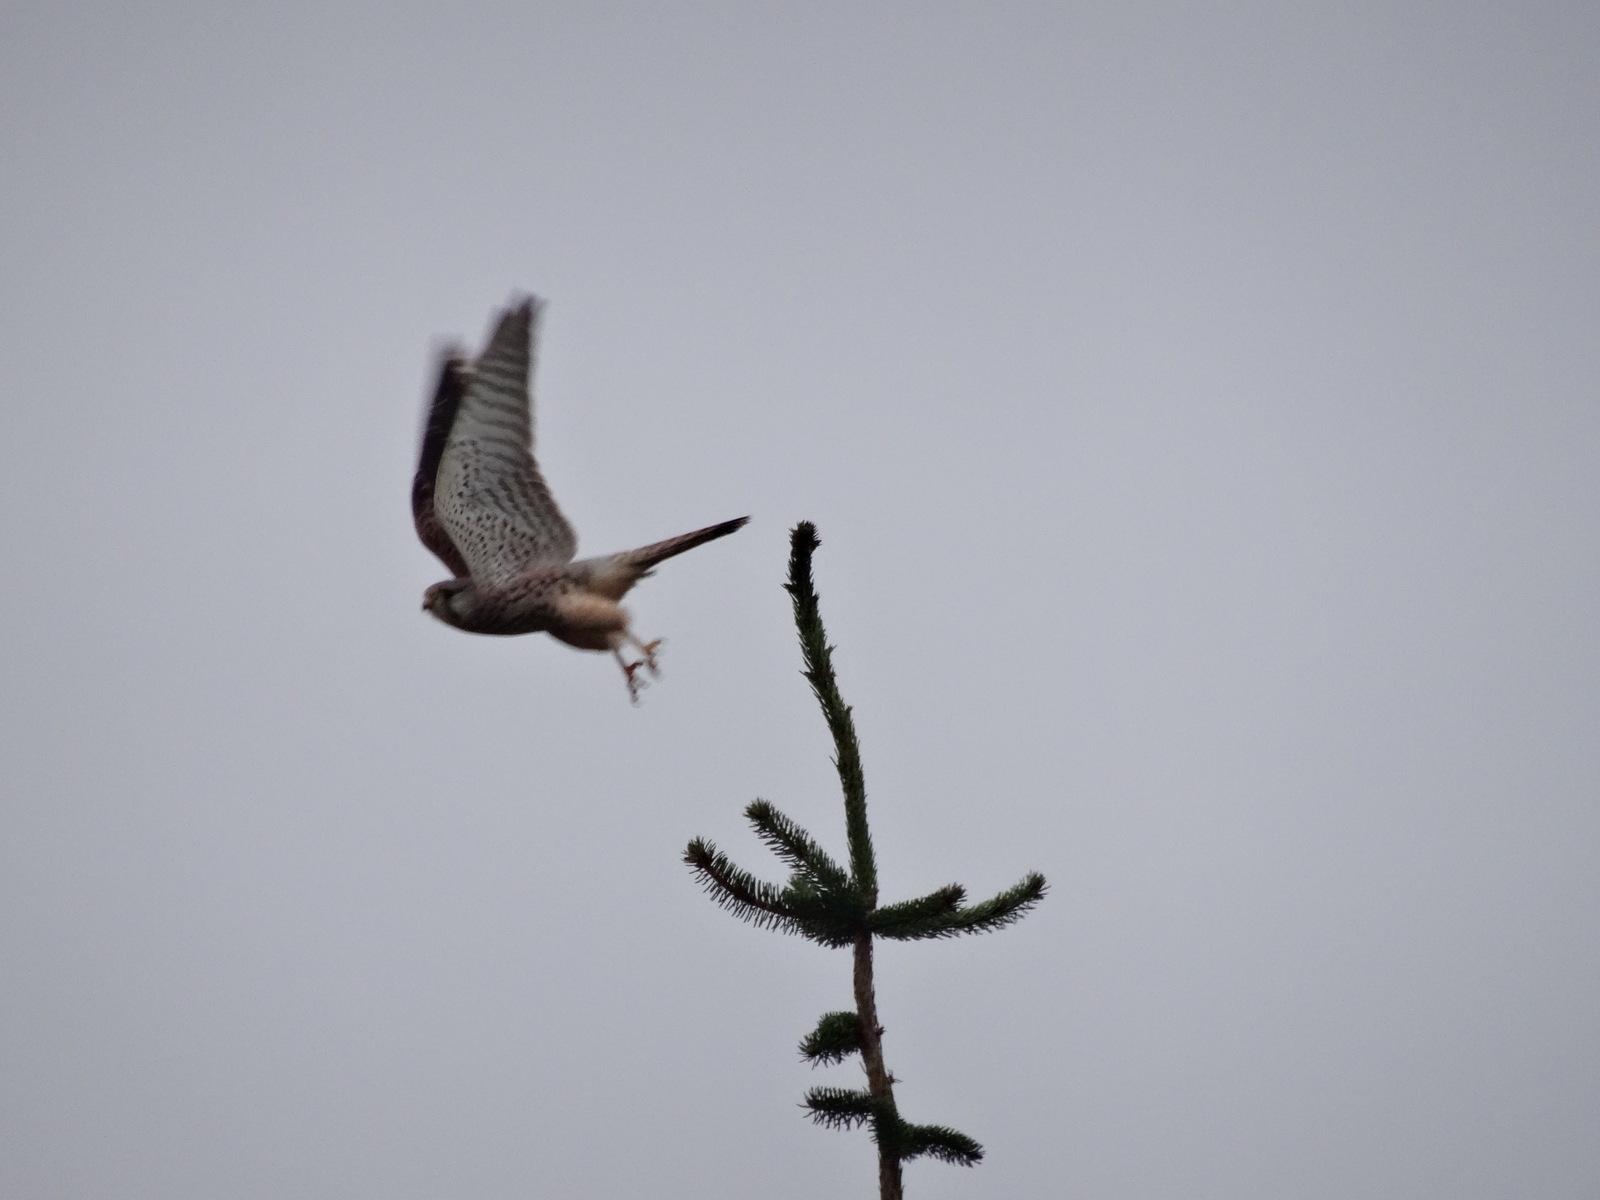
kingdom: Animalia
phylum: Chordata
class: Aves
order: Falconiformes
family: Falconidae
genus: Falco
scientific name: Falco tinnunculus
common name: Common kestrel
